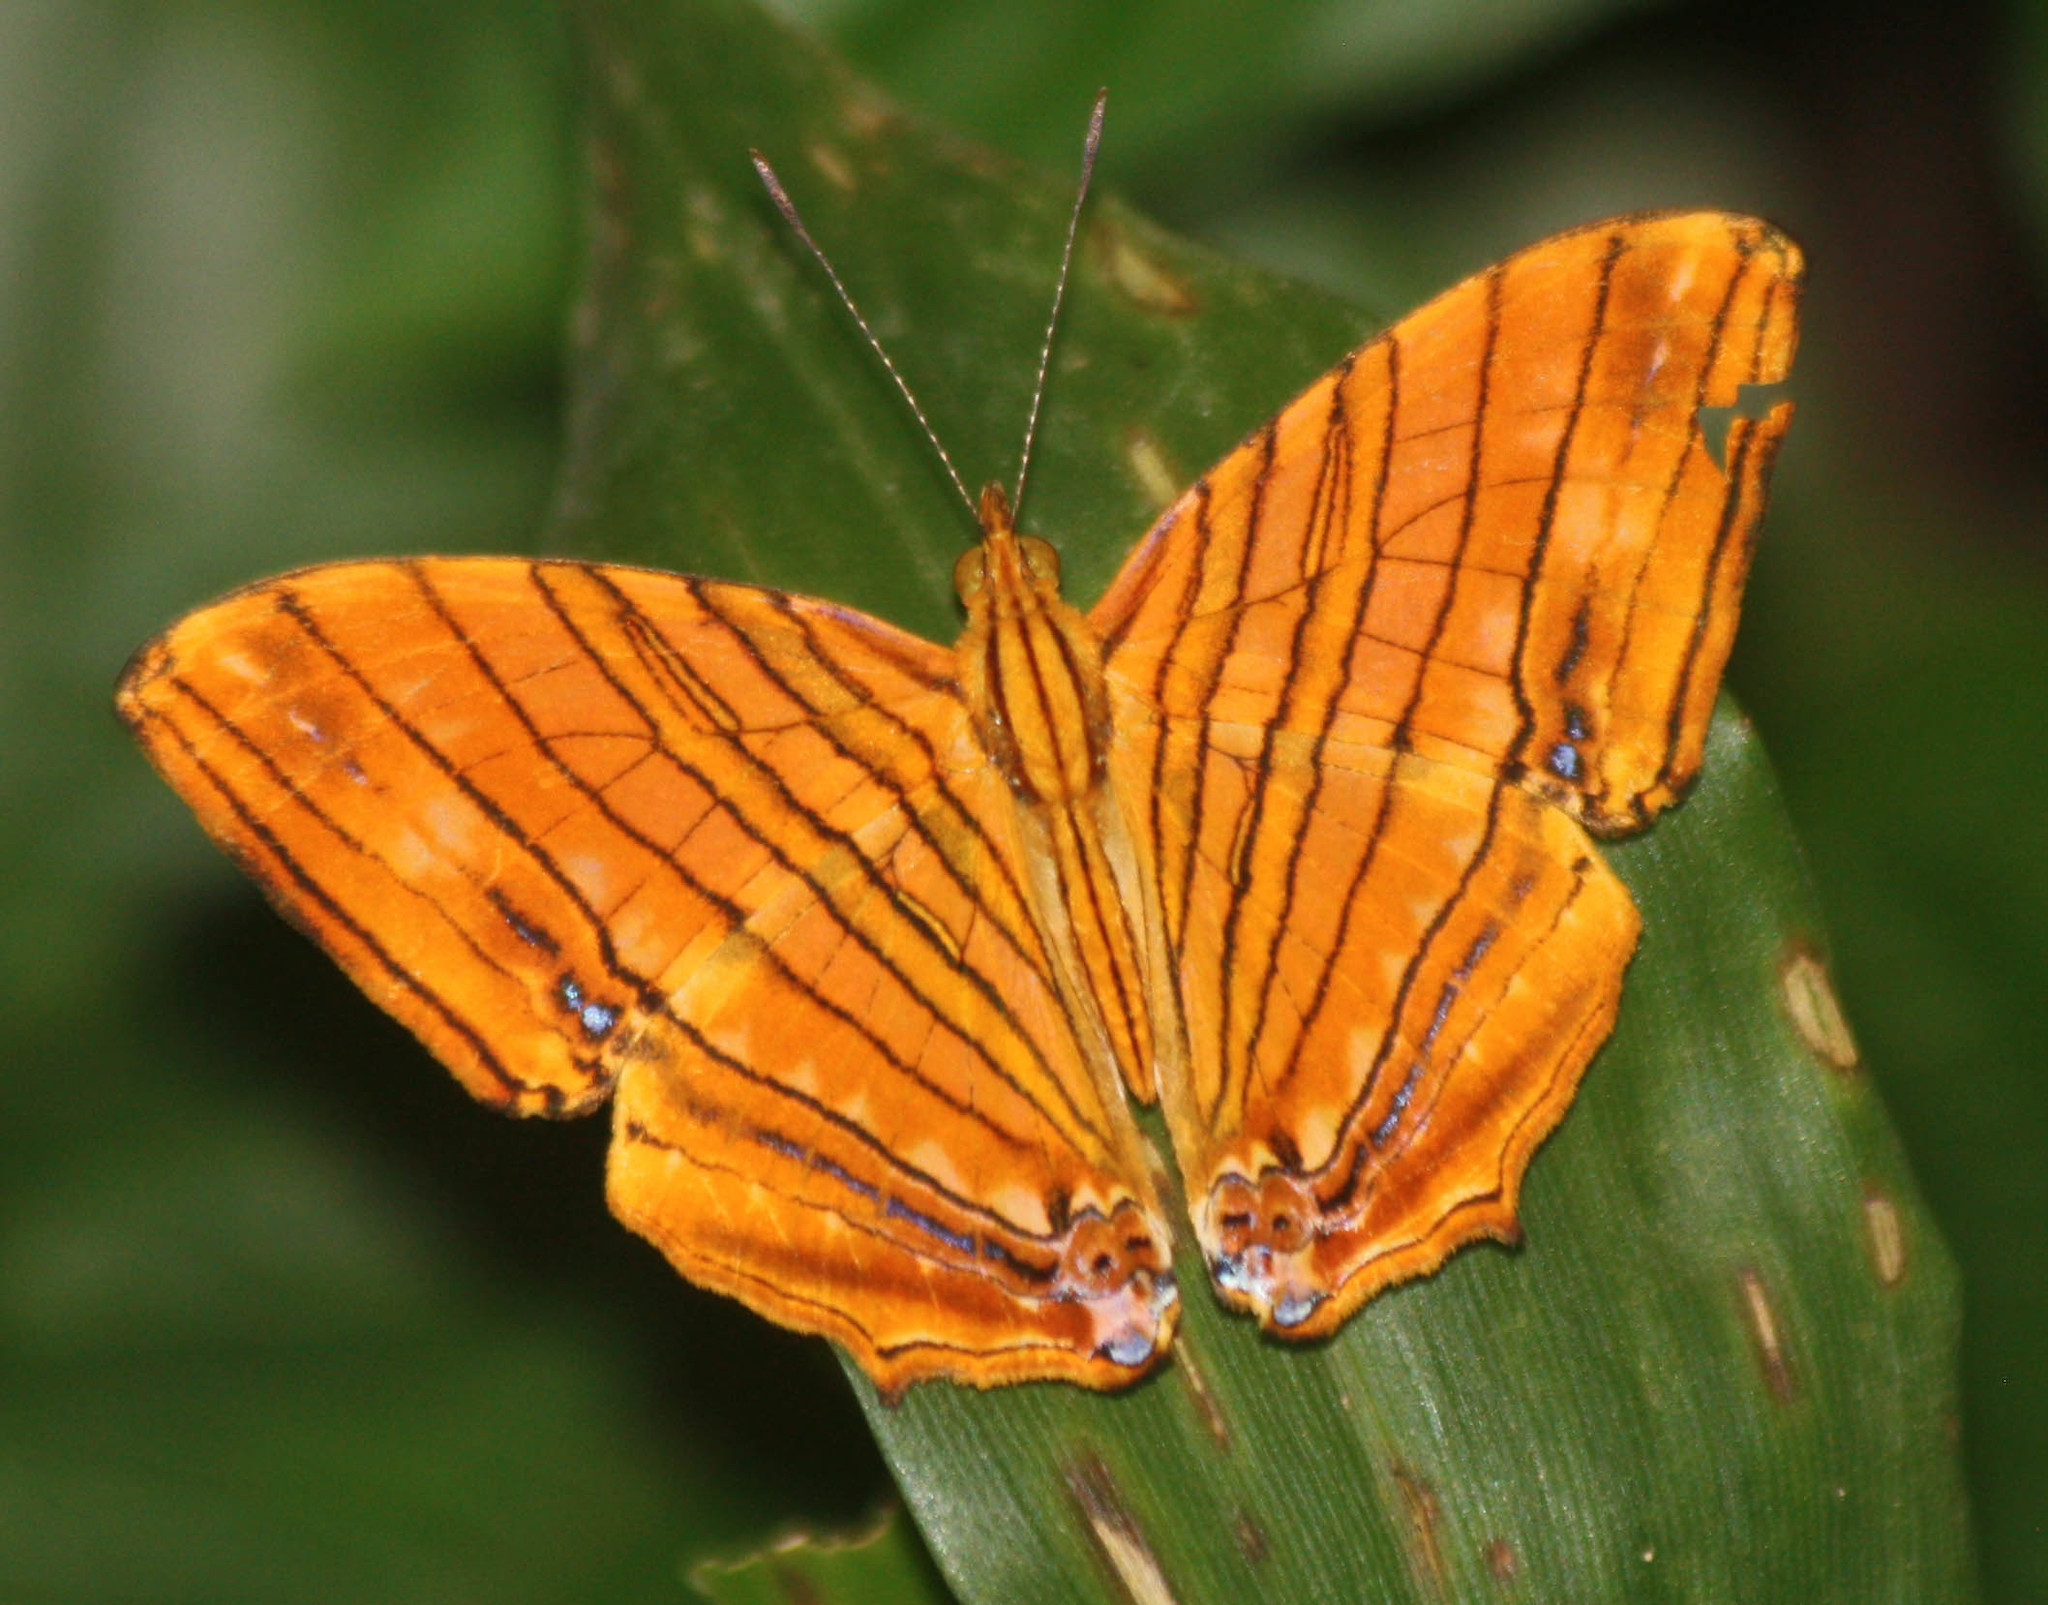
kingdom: Animalia
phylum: Arthropoda
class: Insecta
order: Lepidoptera
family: Nymphalidae
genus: Chersonesia
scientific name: Chersonesia risa
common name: Common maplet
